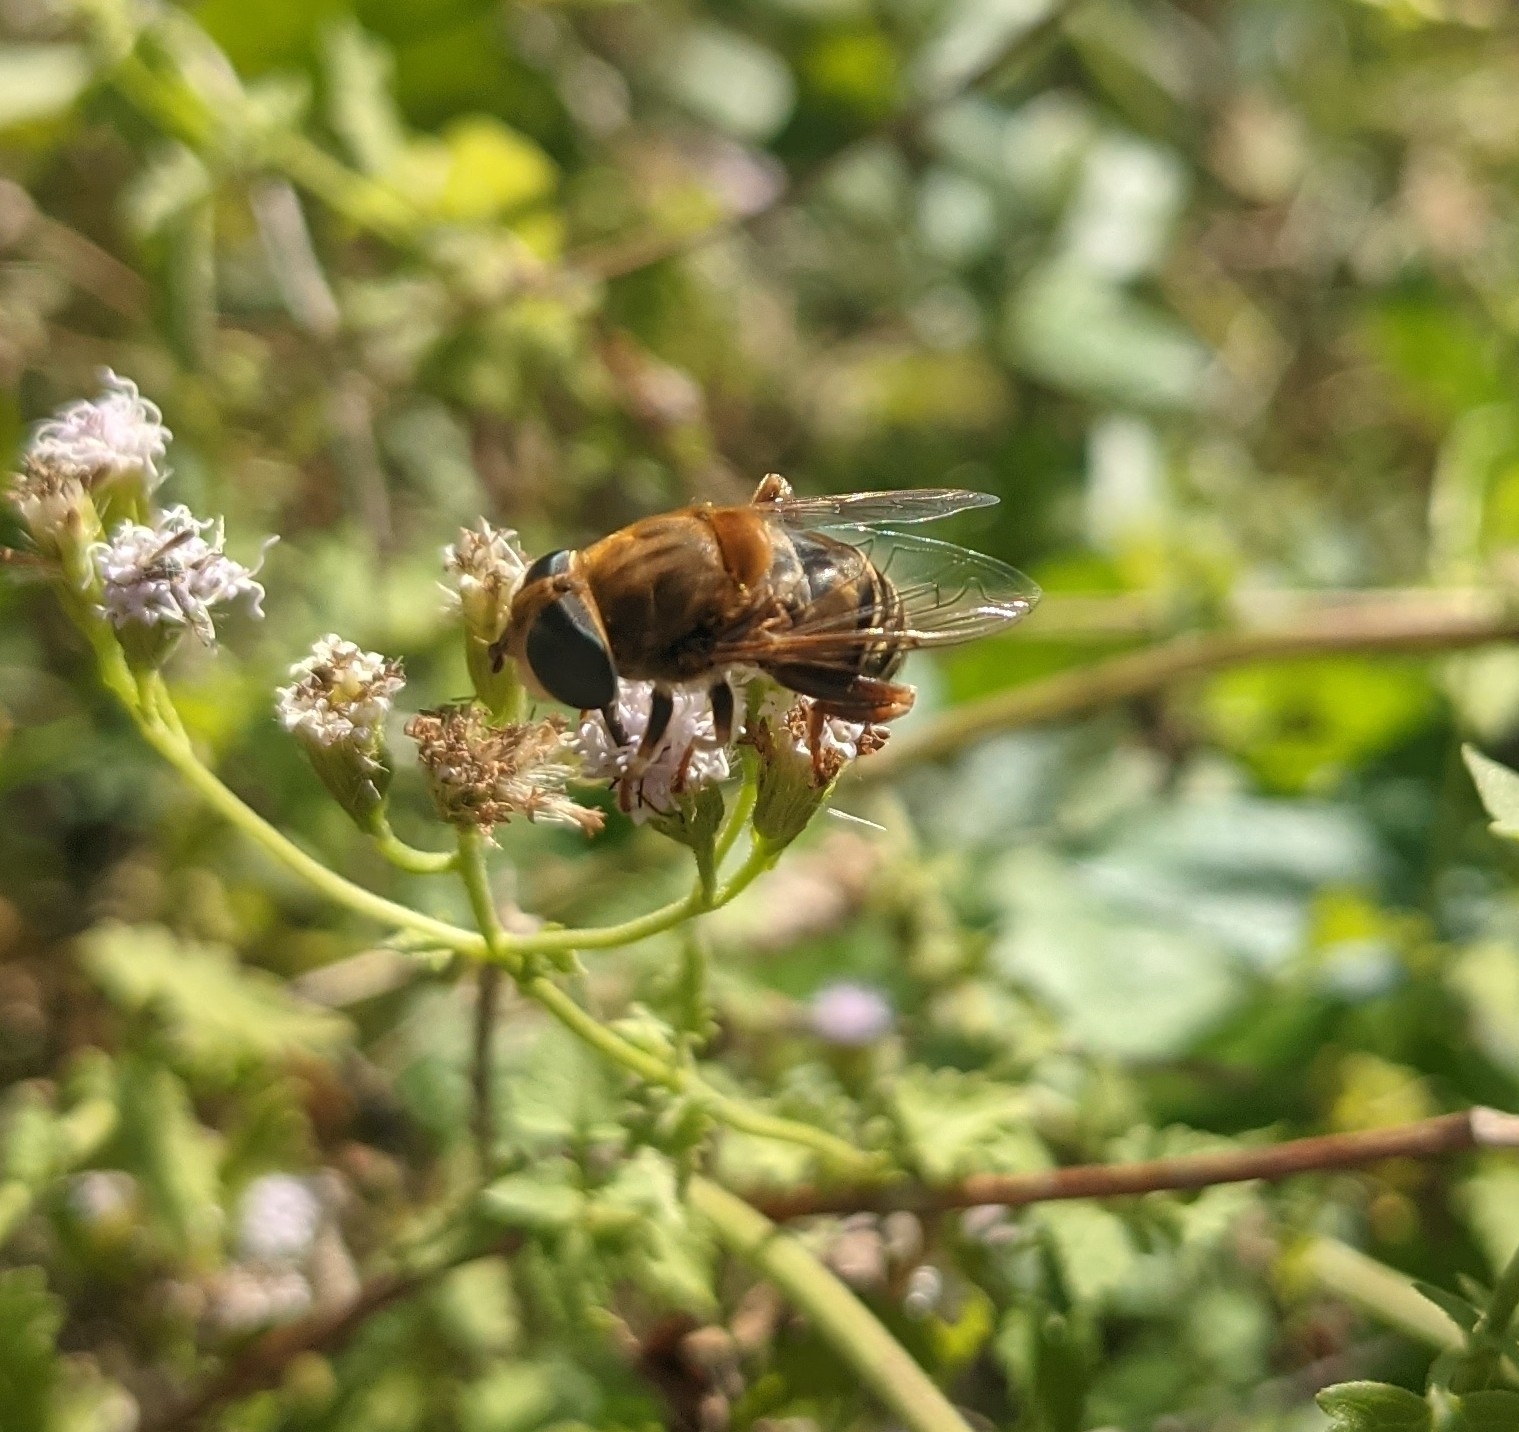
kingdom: Animalia
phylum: Arthropoda
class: Insecta
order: Diptera
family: Syrphidae
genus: Palpada
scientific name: Palpada mexicana
